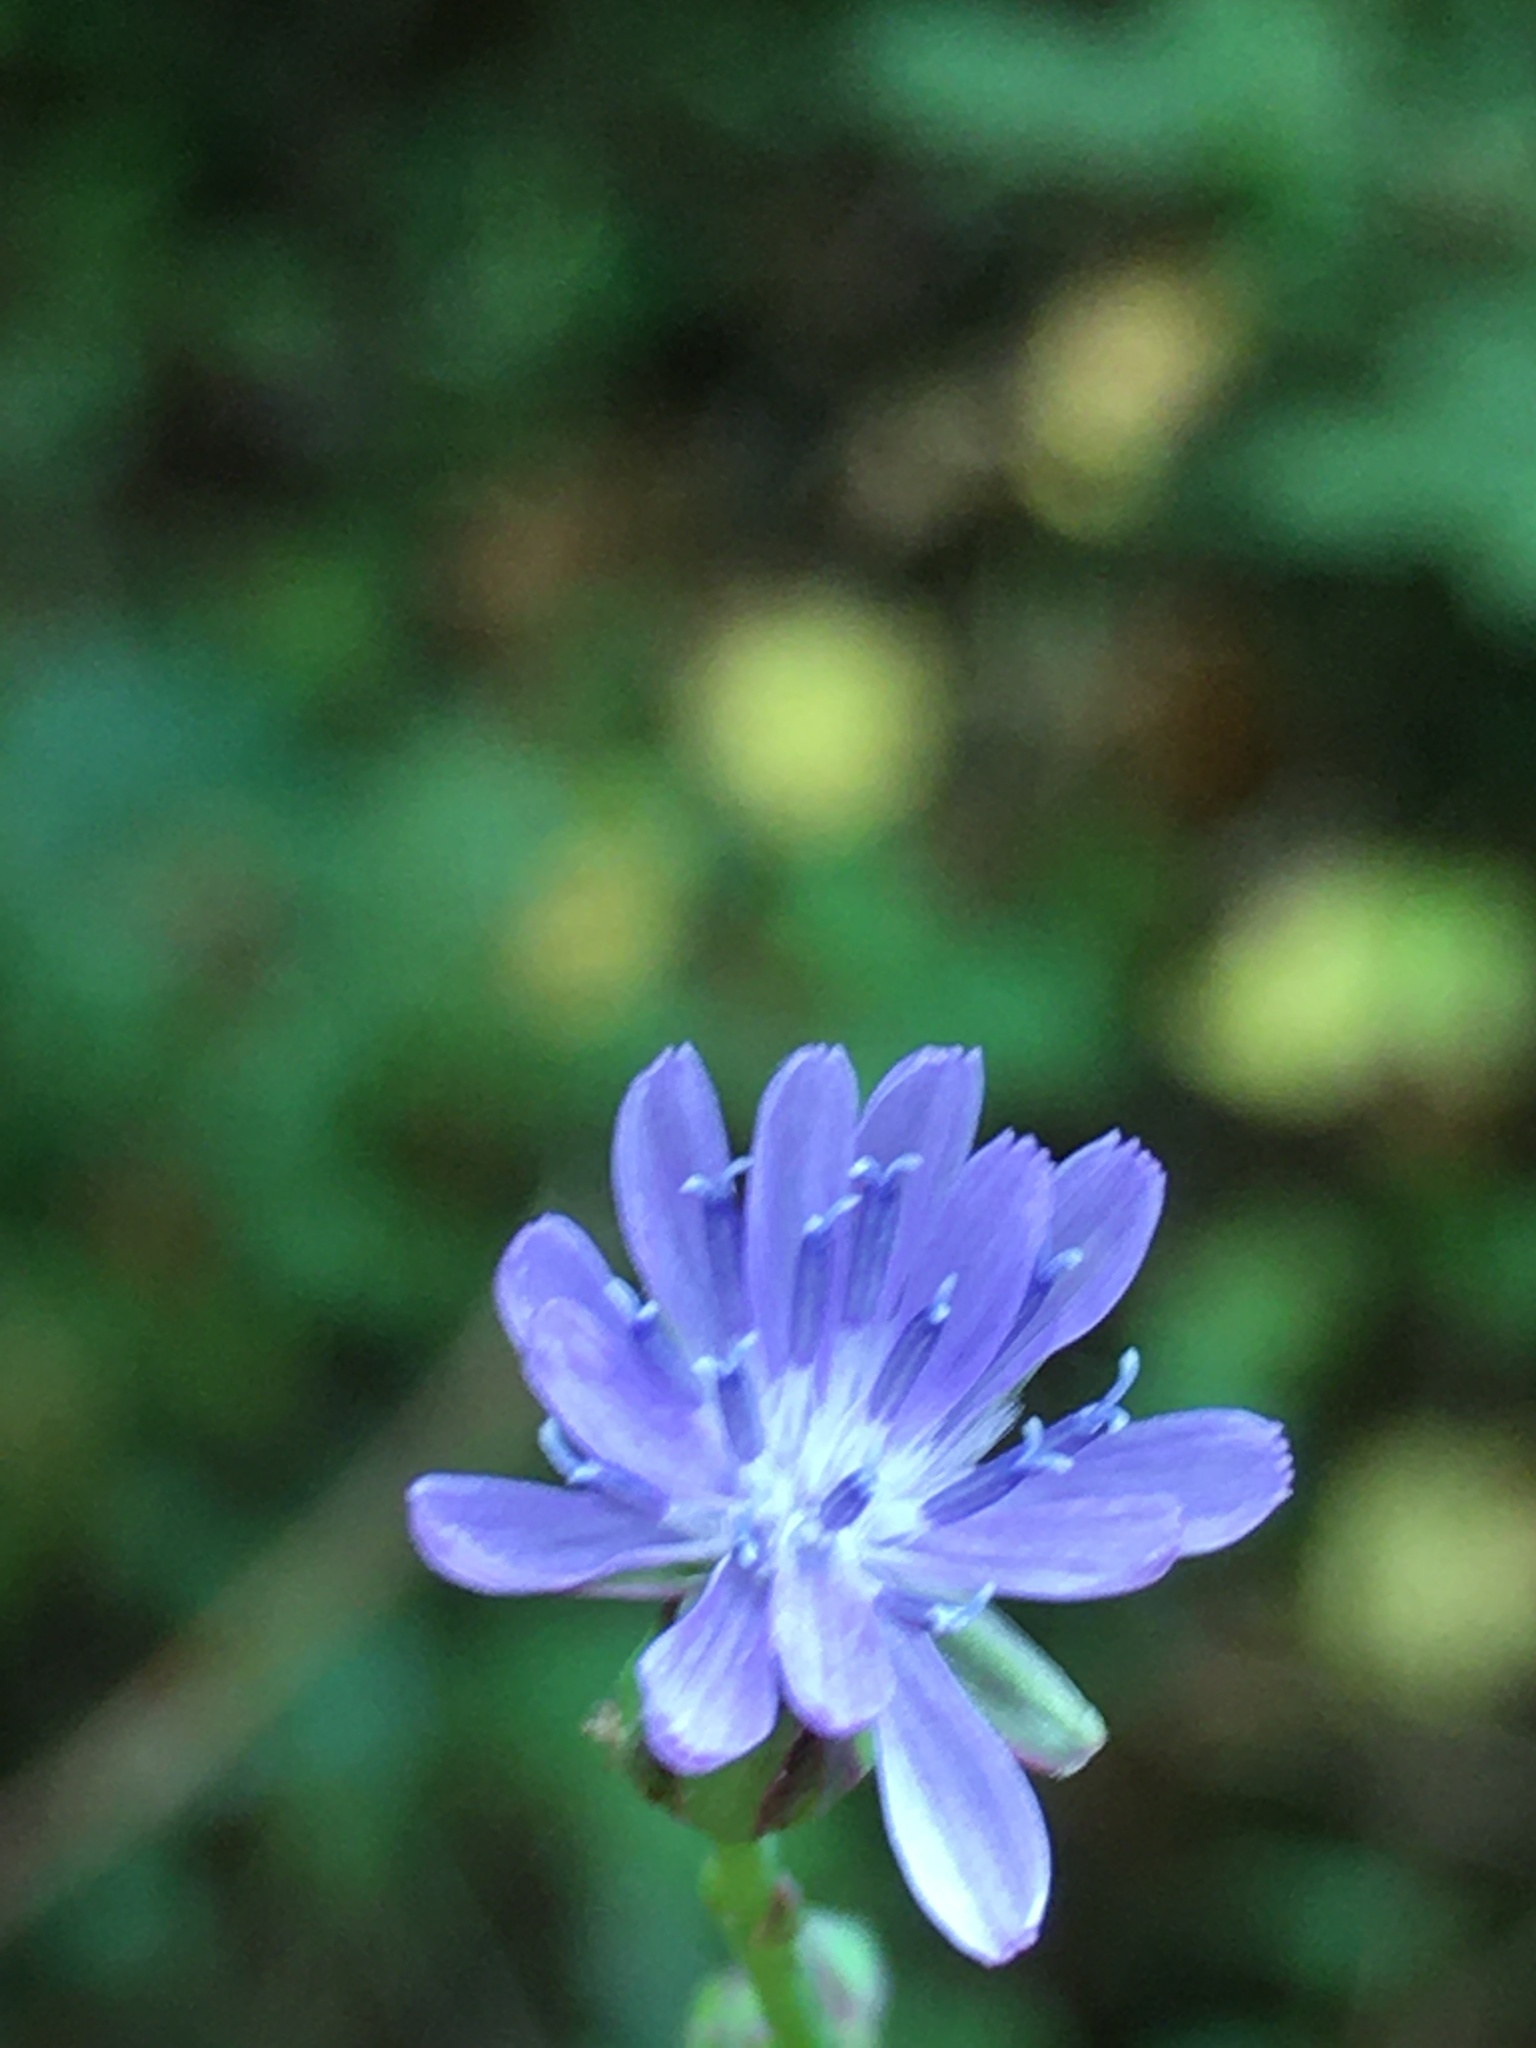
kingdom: Plantae
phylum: Tracheophyta
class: Magnoliopsida
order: Asterales
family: Asteraceae
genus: Lactuca
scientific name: Lactuca floridana
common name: Woodland lettuce
